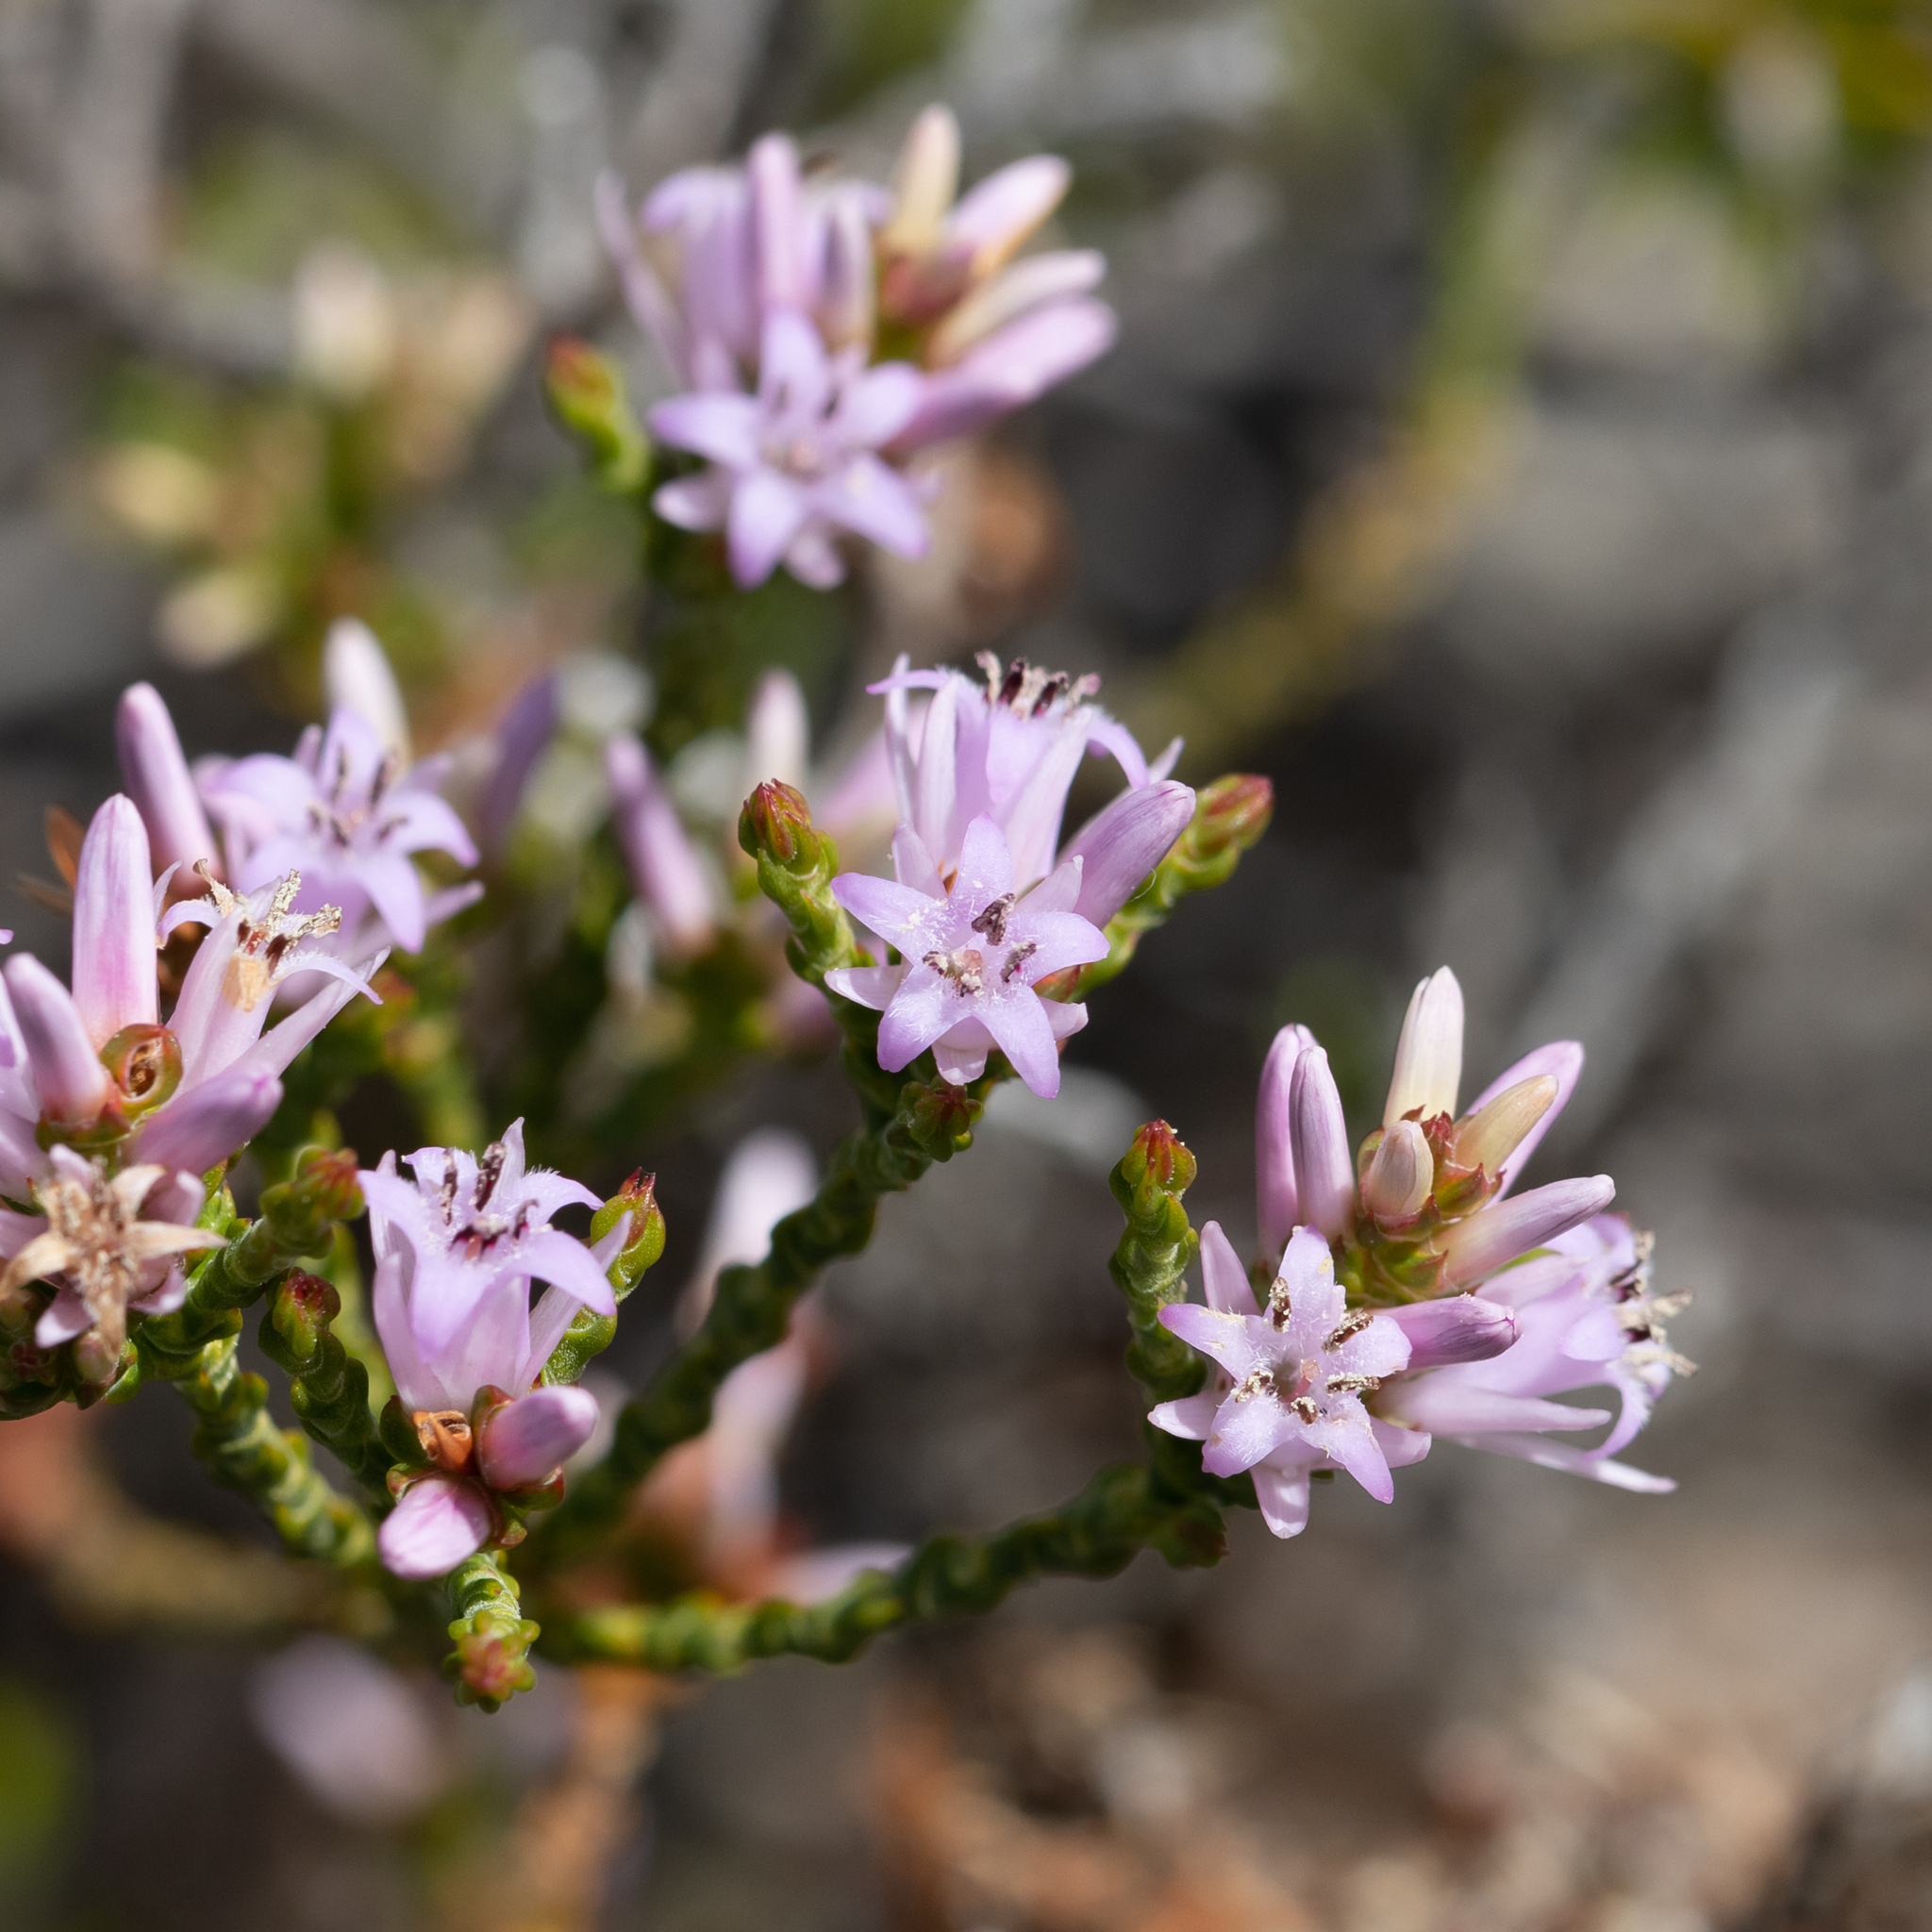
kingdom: Plantae
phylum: Tracheophyta
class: Magnoliopsida
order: Ericales
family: Ericaceae
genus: Andersonia
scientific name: Andersonia parvifolia
